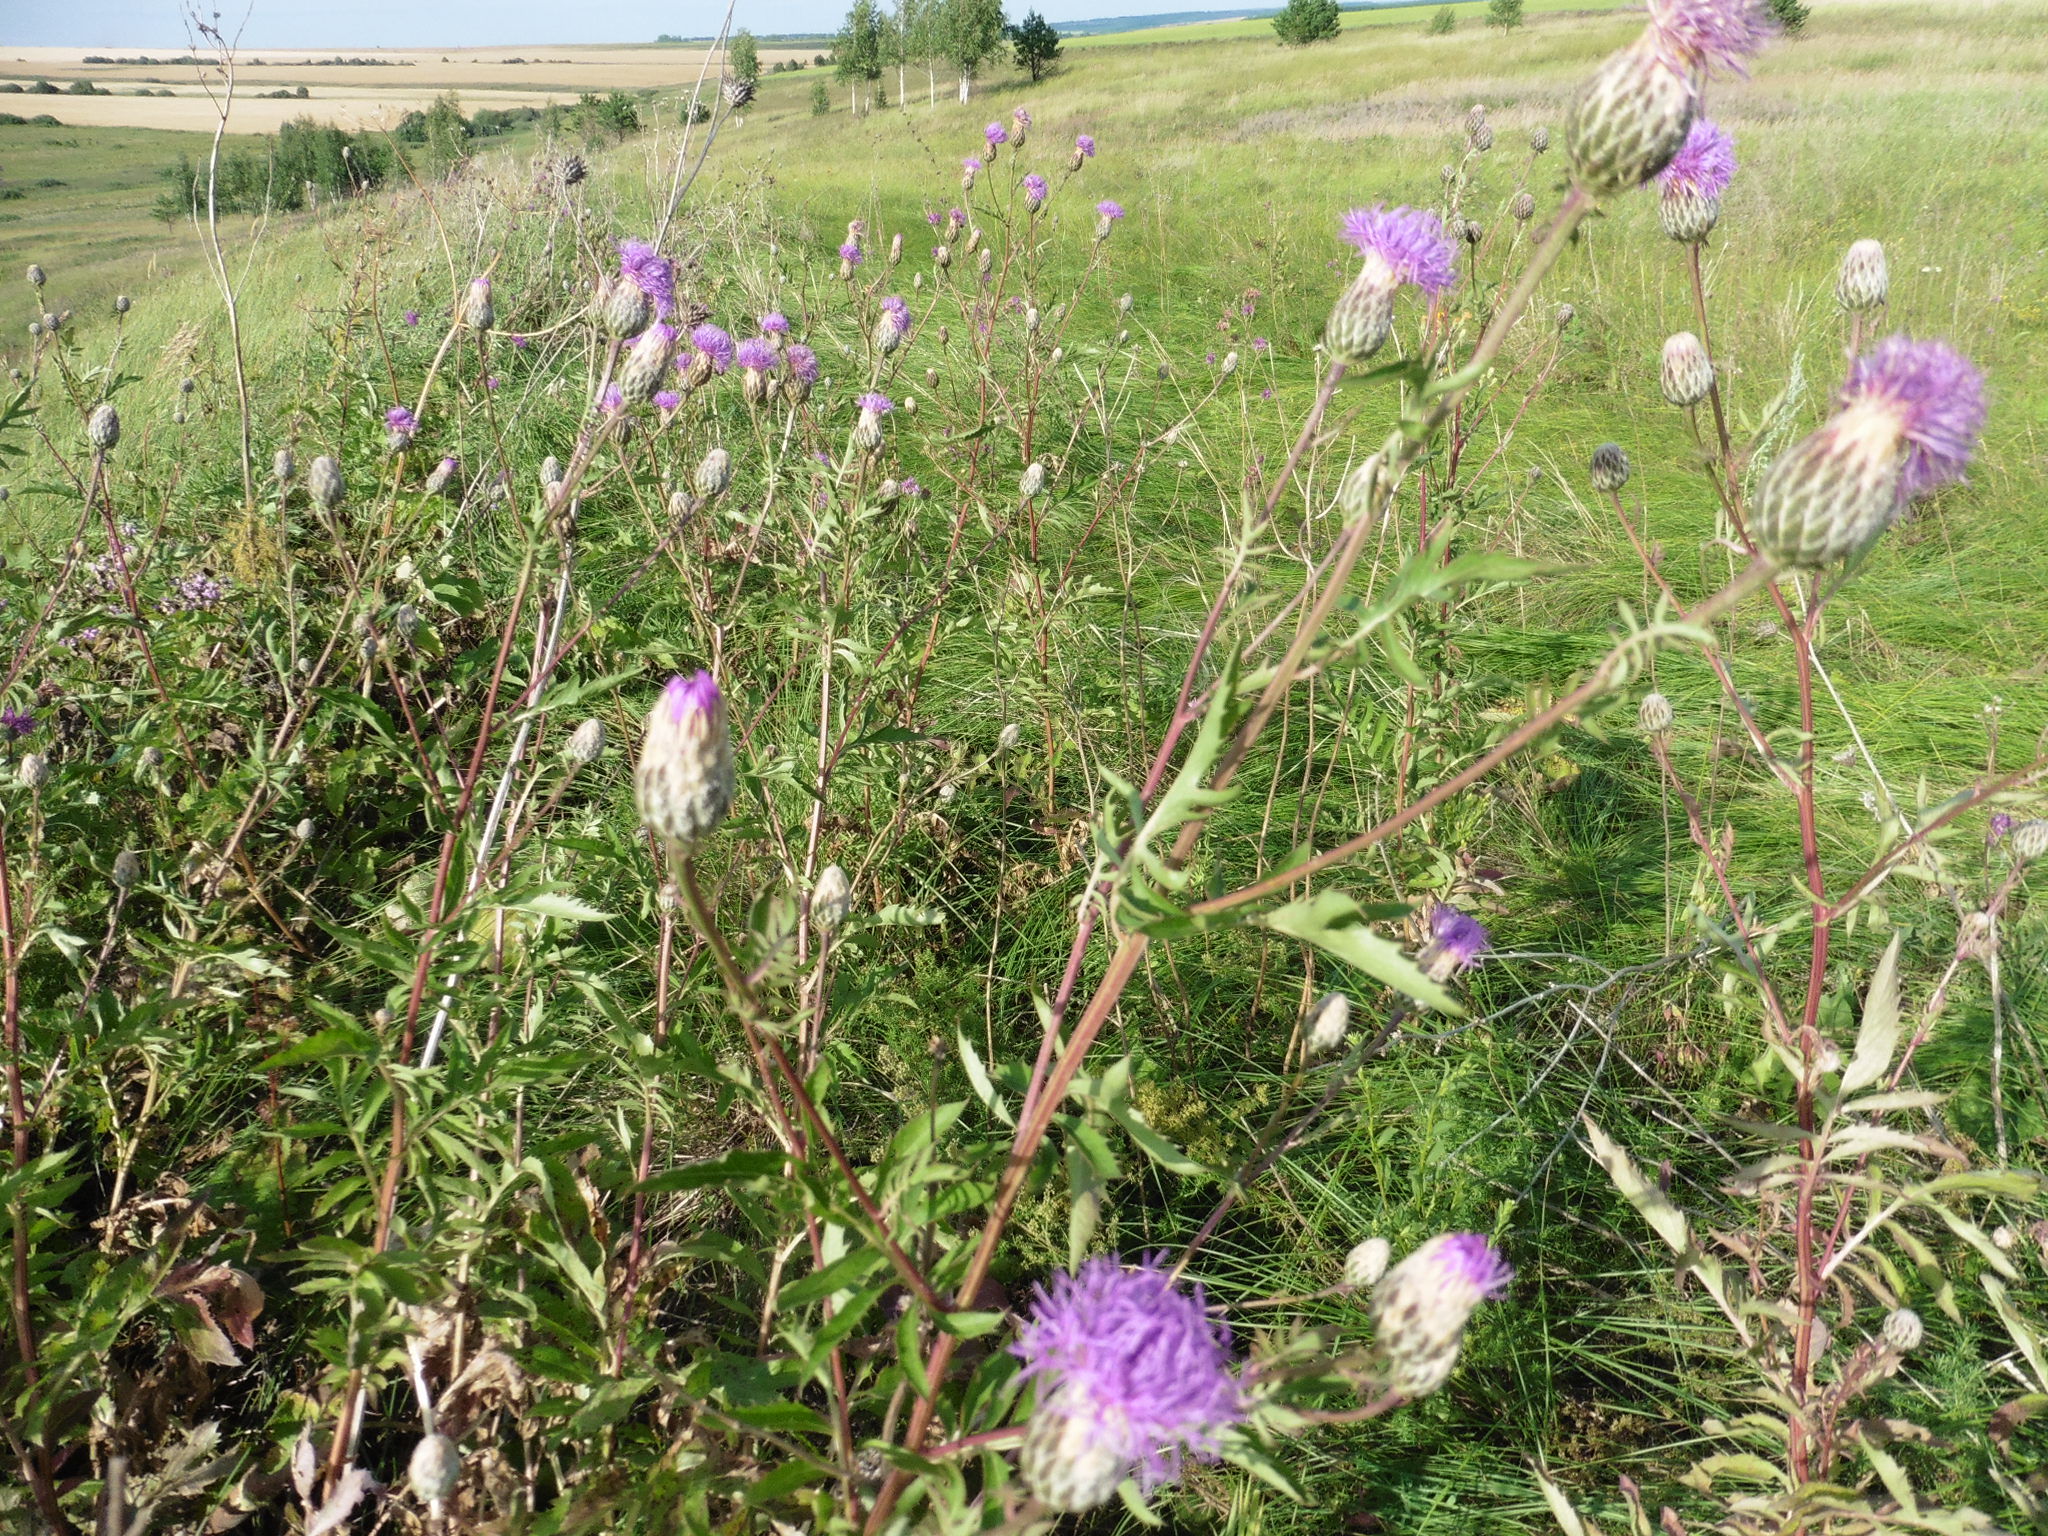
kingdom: Plantae
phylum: Tracheophyta
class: Magnoliopsida
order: Asterales
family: Asteraceae
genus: Serratula
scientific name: Serratula coronata
